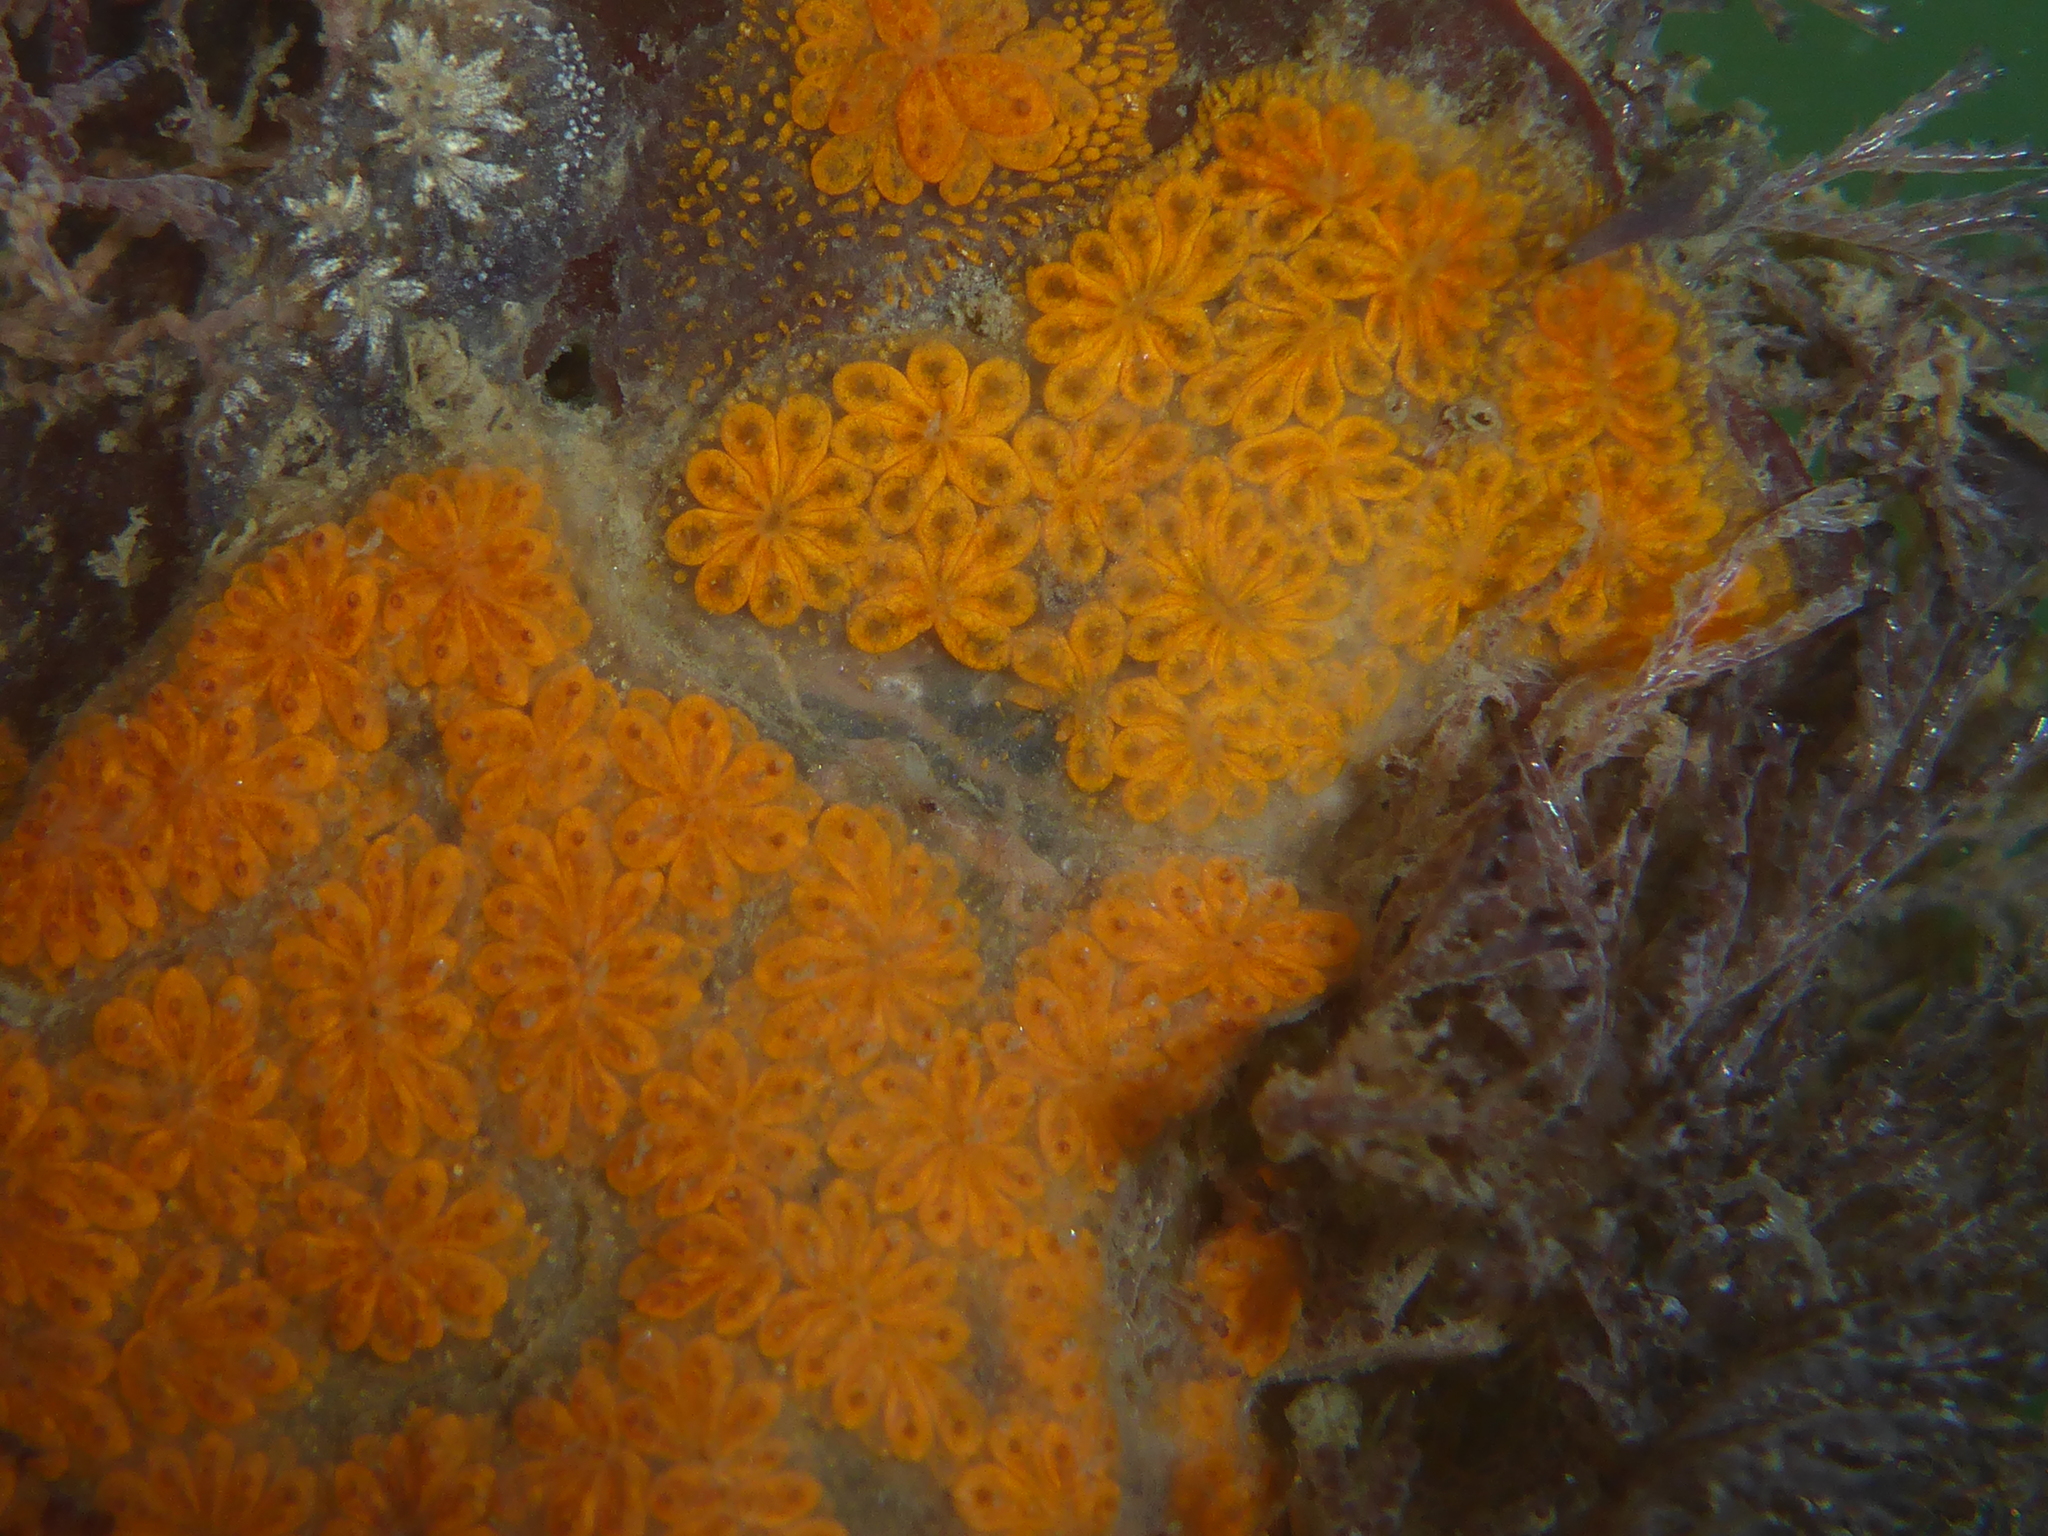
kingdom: Animalia
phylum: Chordata
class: Ascidiacea
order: Stolidobranchia
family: Styelidae
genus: Botryllus
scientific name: Botryllus schlosseri
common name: Golden star tunicate
